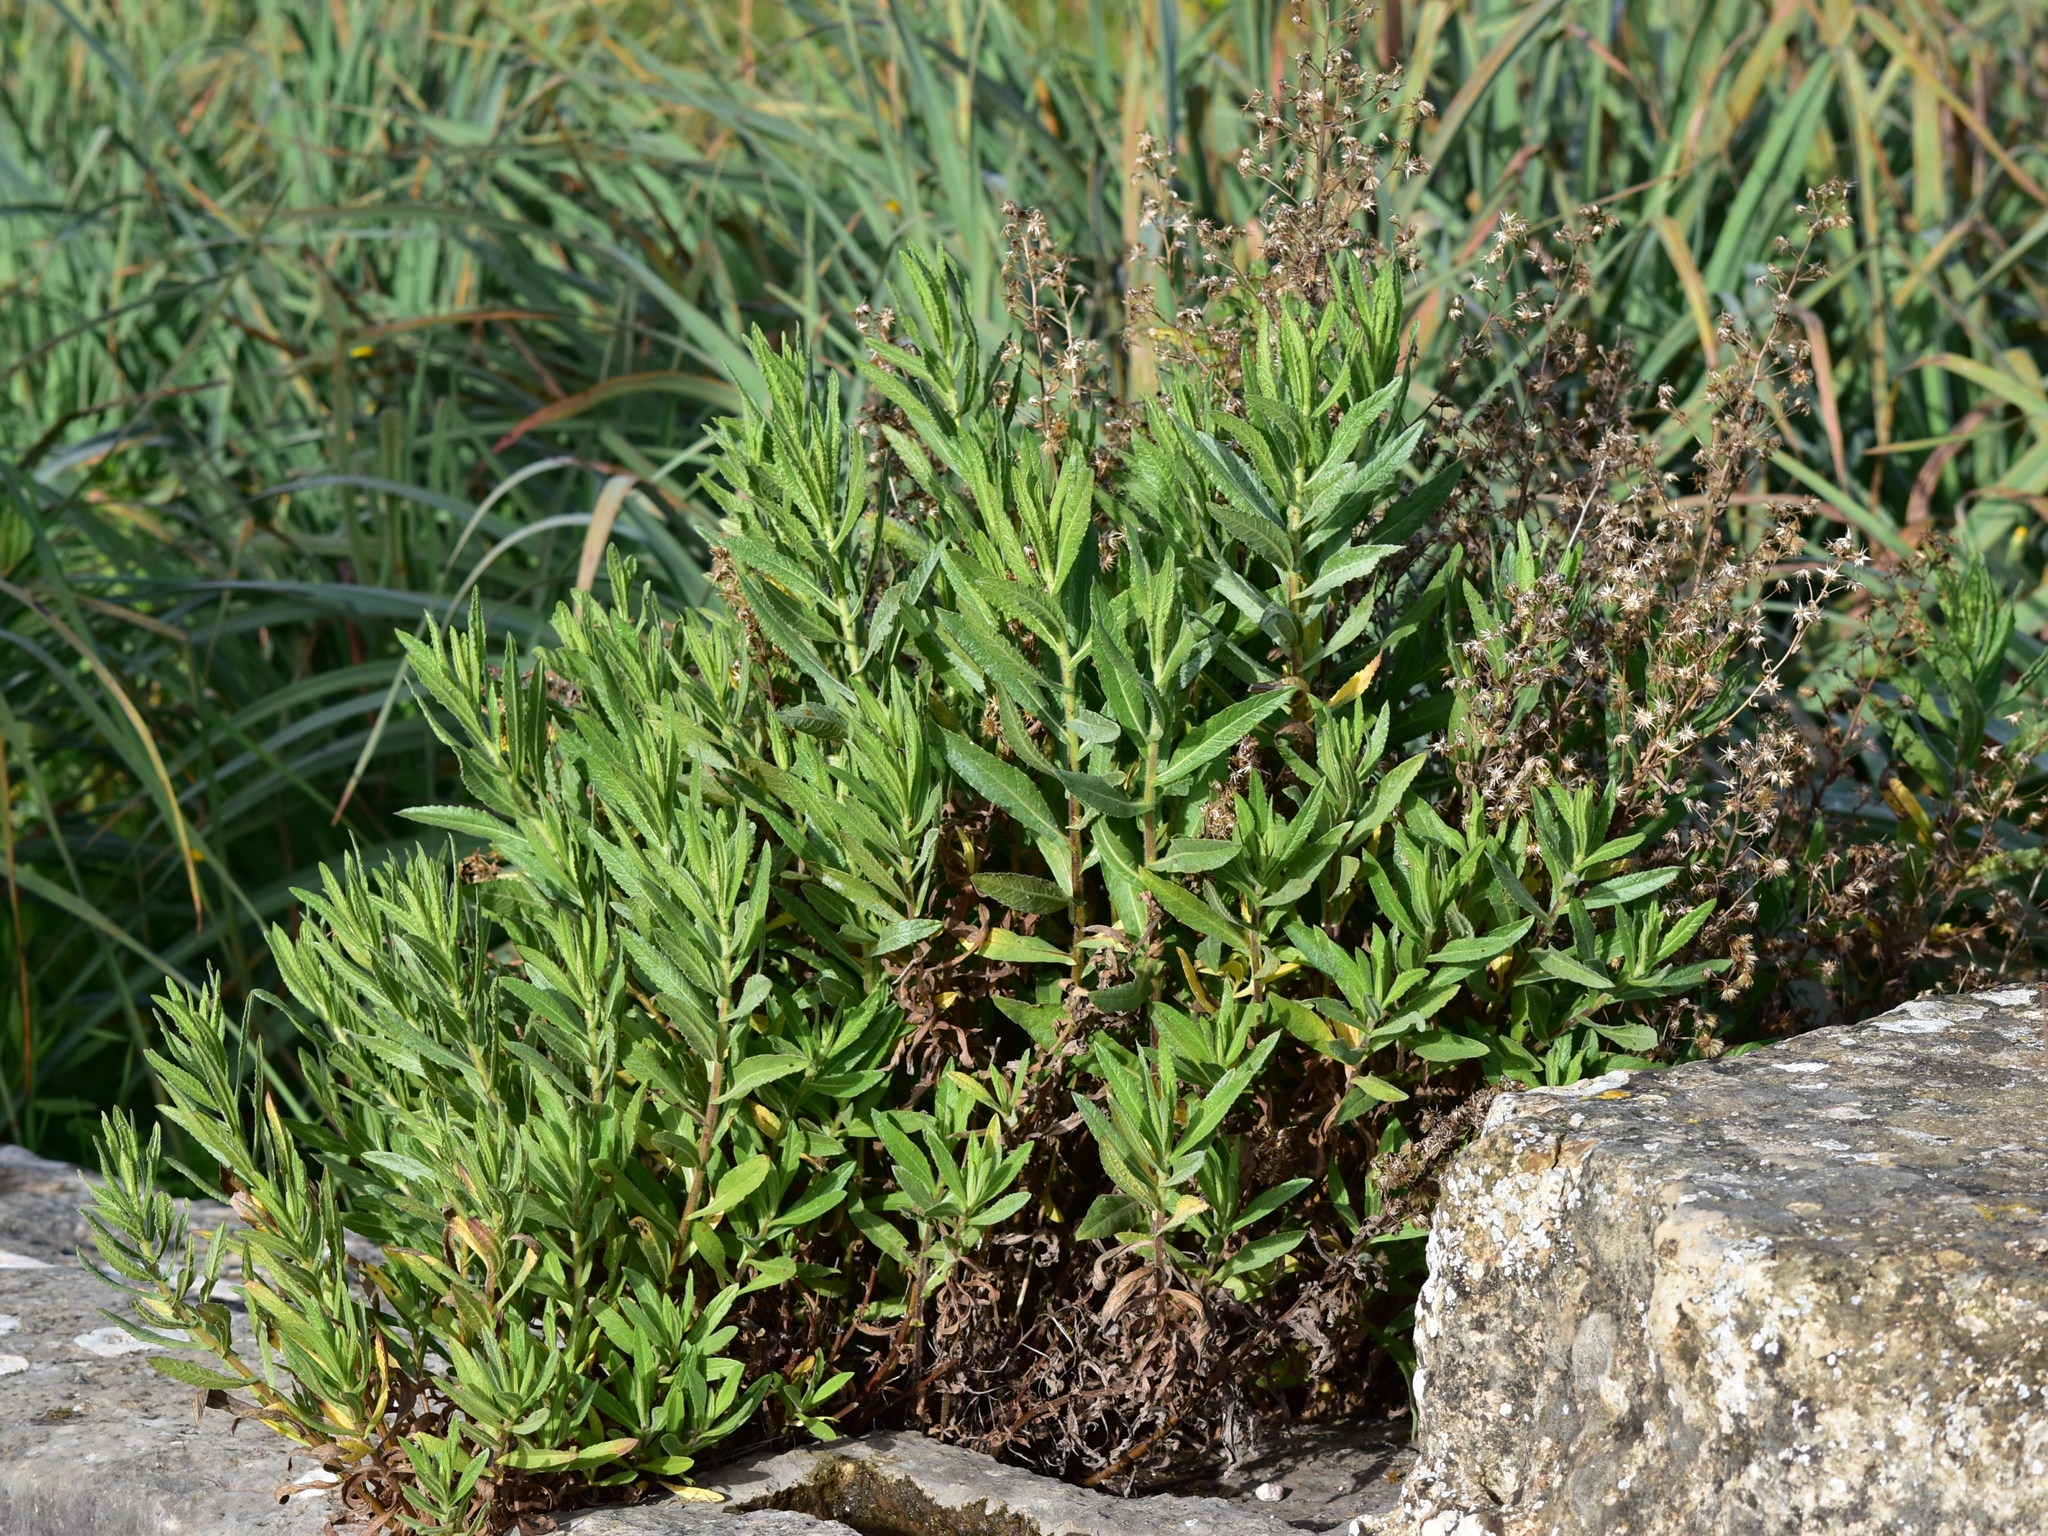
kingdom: Plantae
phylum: Tracheophyta
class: Magnoliopsida
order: Asterales
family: Asteraceae
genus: Dittrichia
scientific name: Dittrichia viscosa
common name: Woody fleabane
